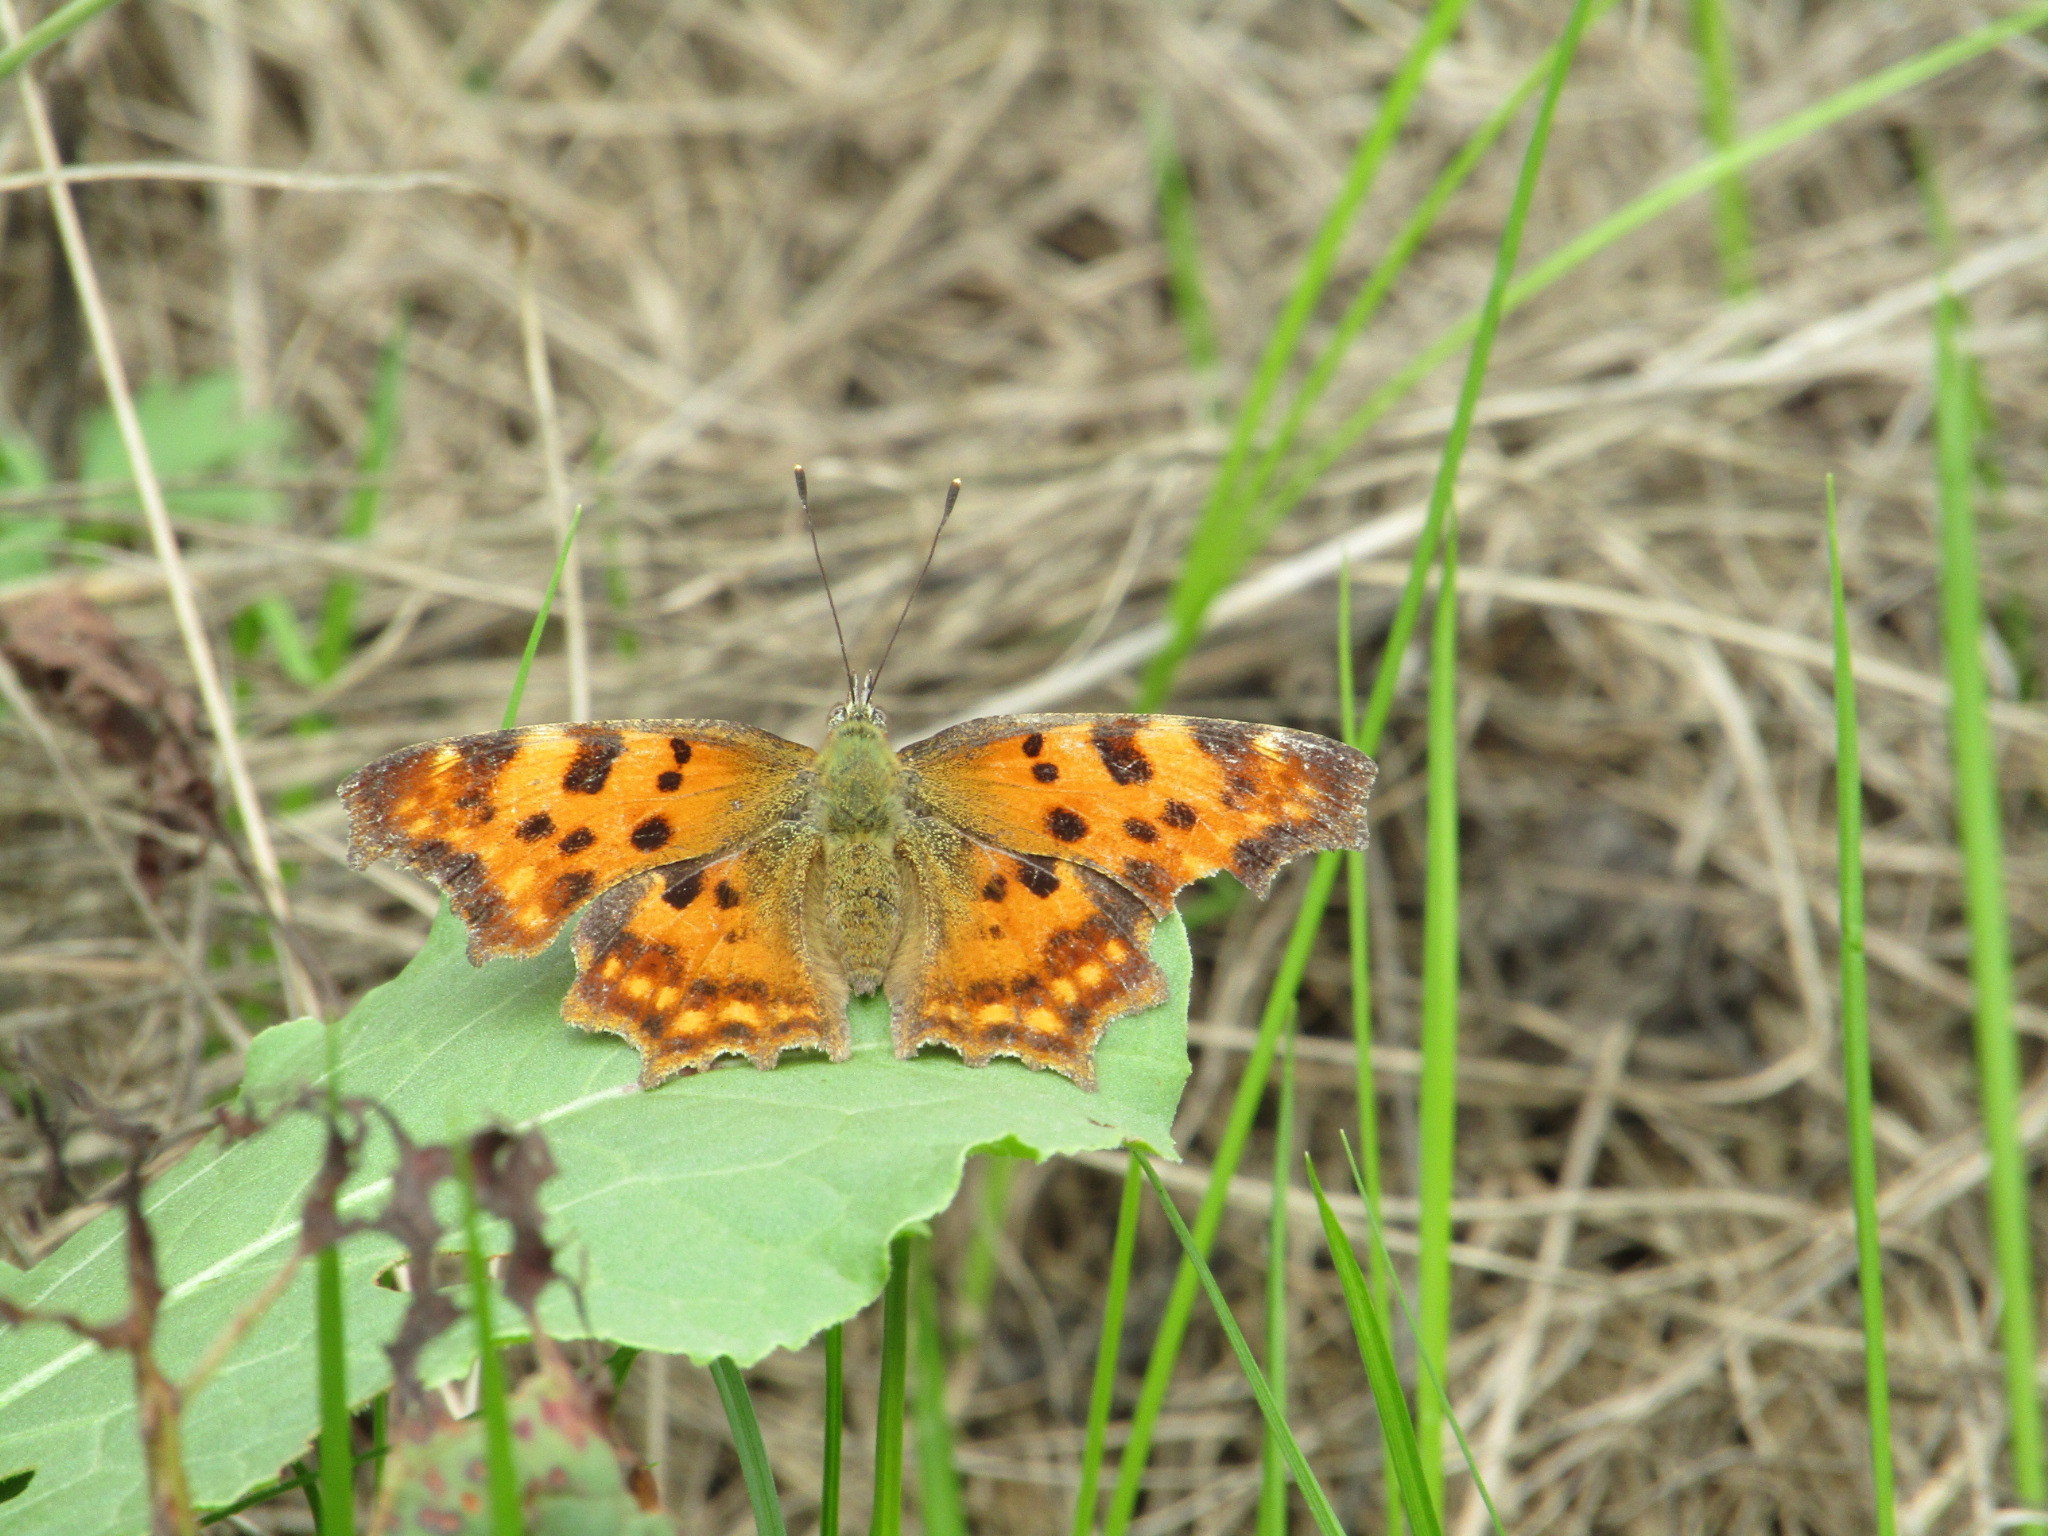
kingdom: Animalia
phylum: Arthropoda
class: Insecta
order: Lepidoptera
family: Nymphalidae
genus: Polygonia
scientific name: Polygonia c-album
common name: Comma
